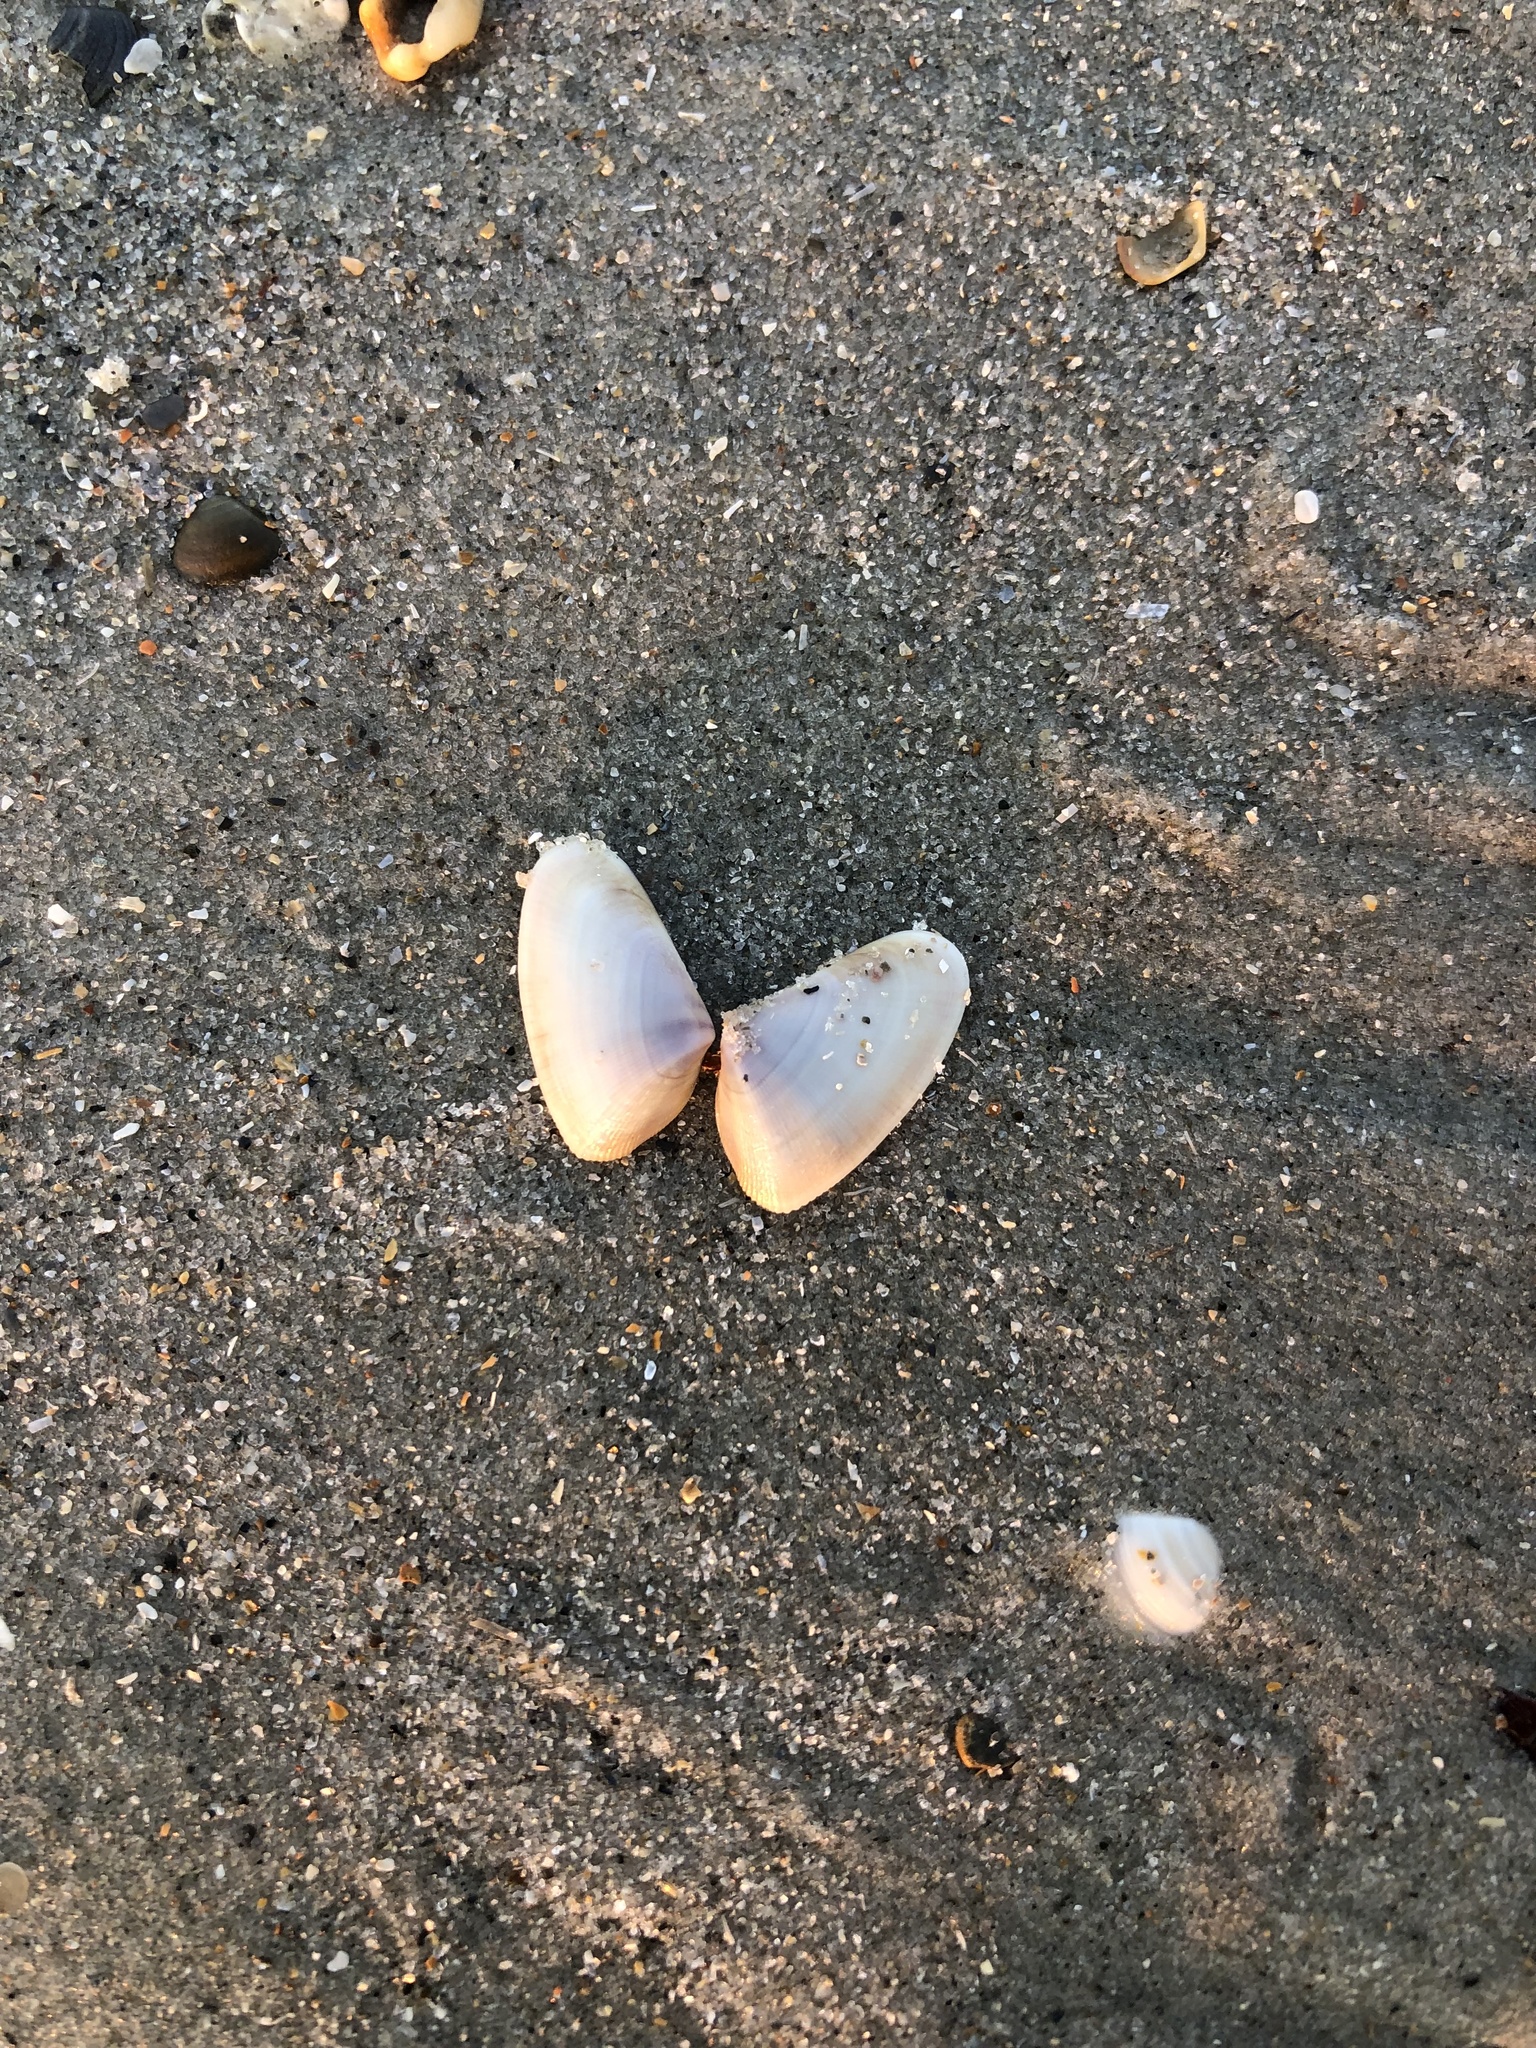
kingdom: Animalia
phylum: Mollusca
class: Bivalvia
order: Cardiida
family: Donacidae
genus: Donax
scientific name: Donax variabilis
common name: Butterfly shell
